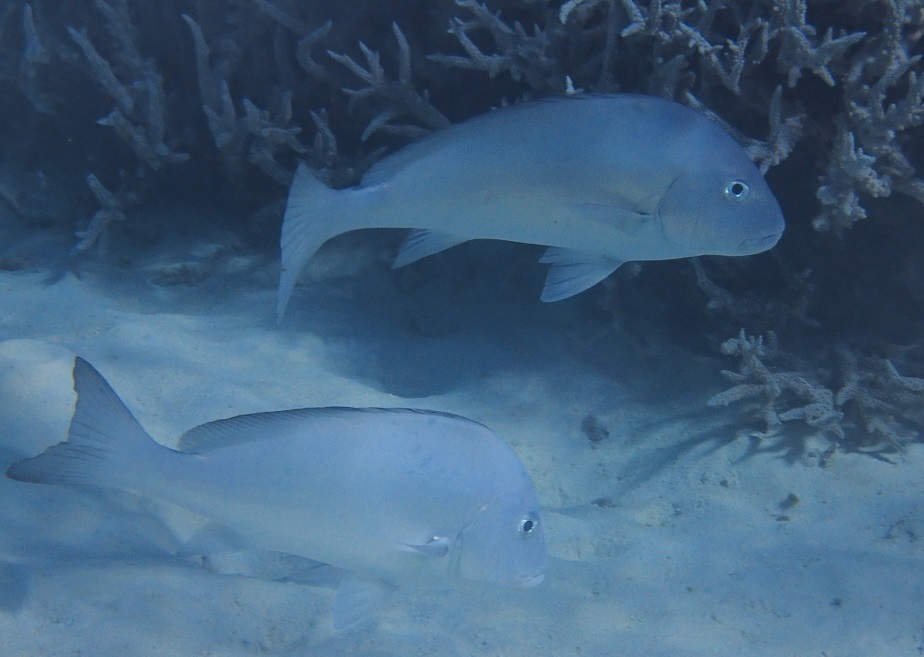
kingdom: Animalia
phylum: Chordata
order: Perciformes
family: Haemulidae
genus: Diagramma
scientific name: Diagramma pictum
